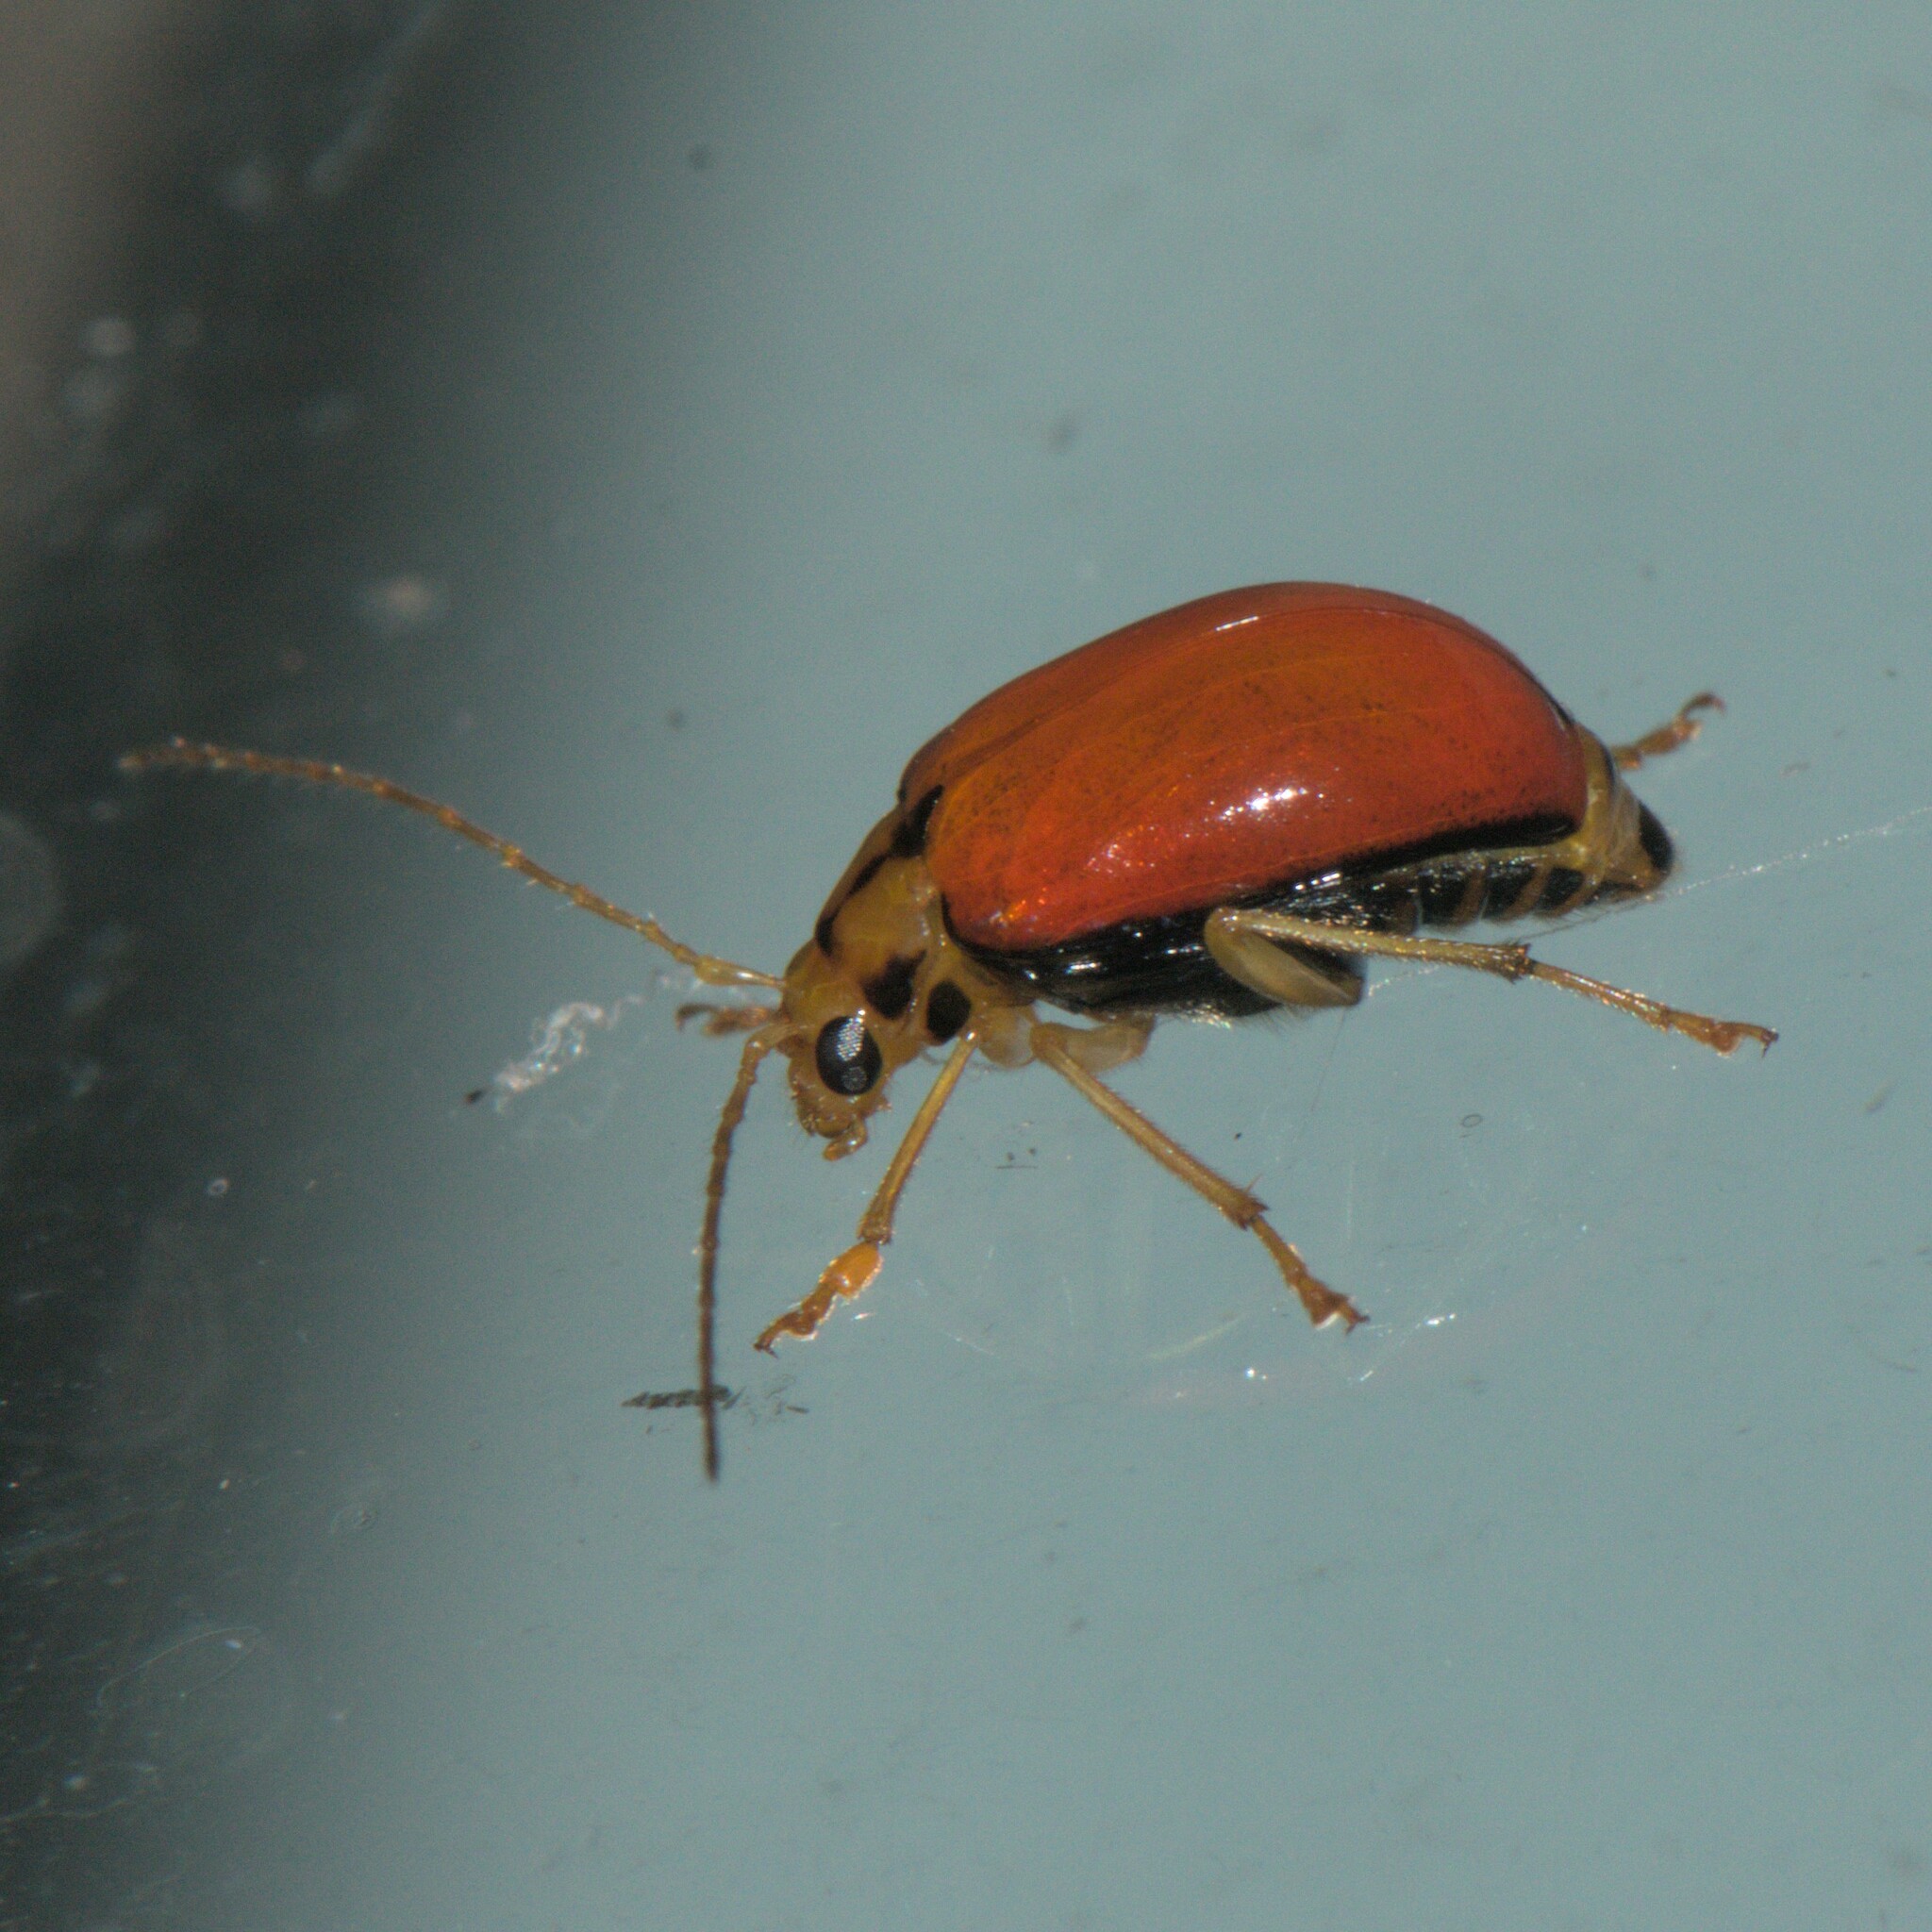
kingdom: Animalia
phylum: Arthropoda
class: Insecta
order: Coleoptera
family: Chrysomelidae
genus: Macrima
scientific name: Macrima
